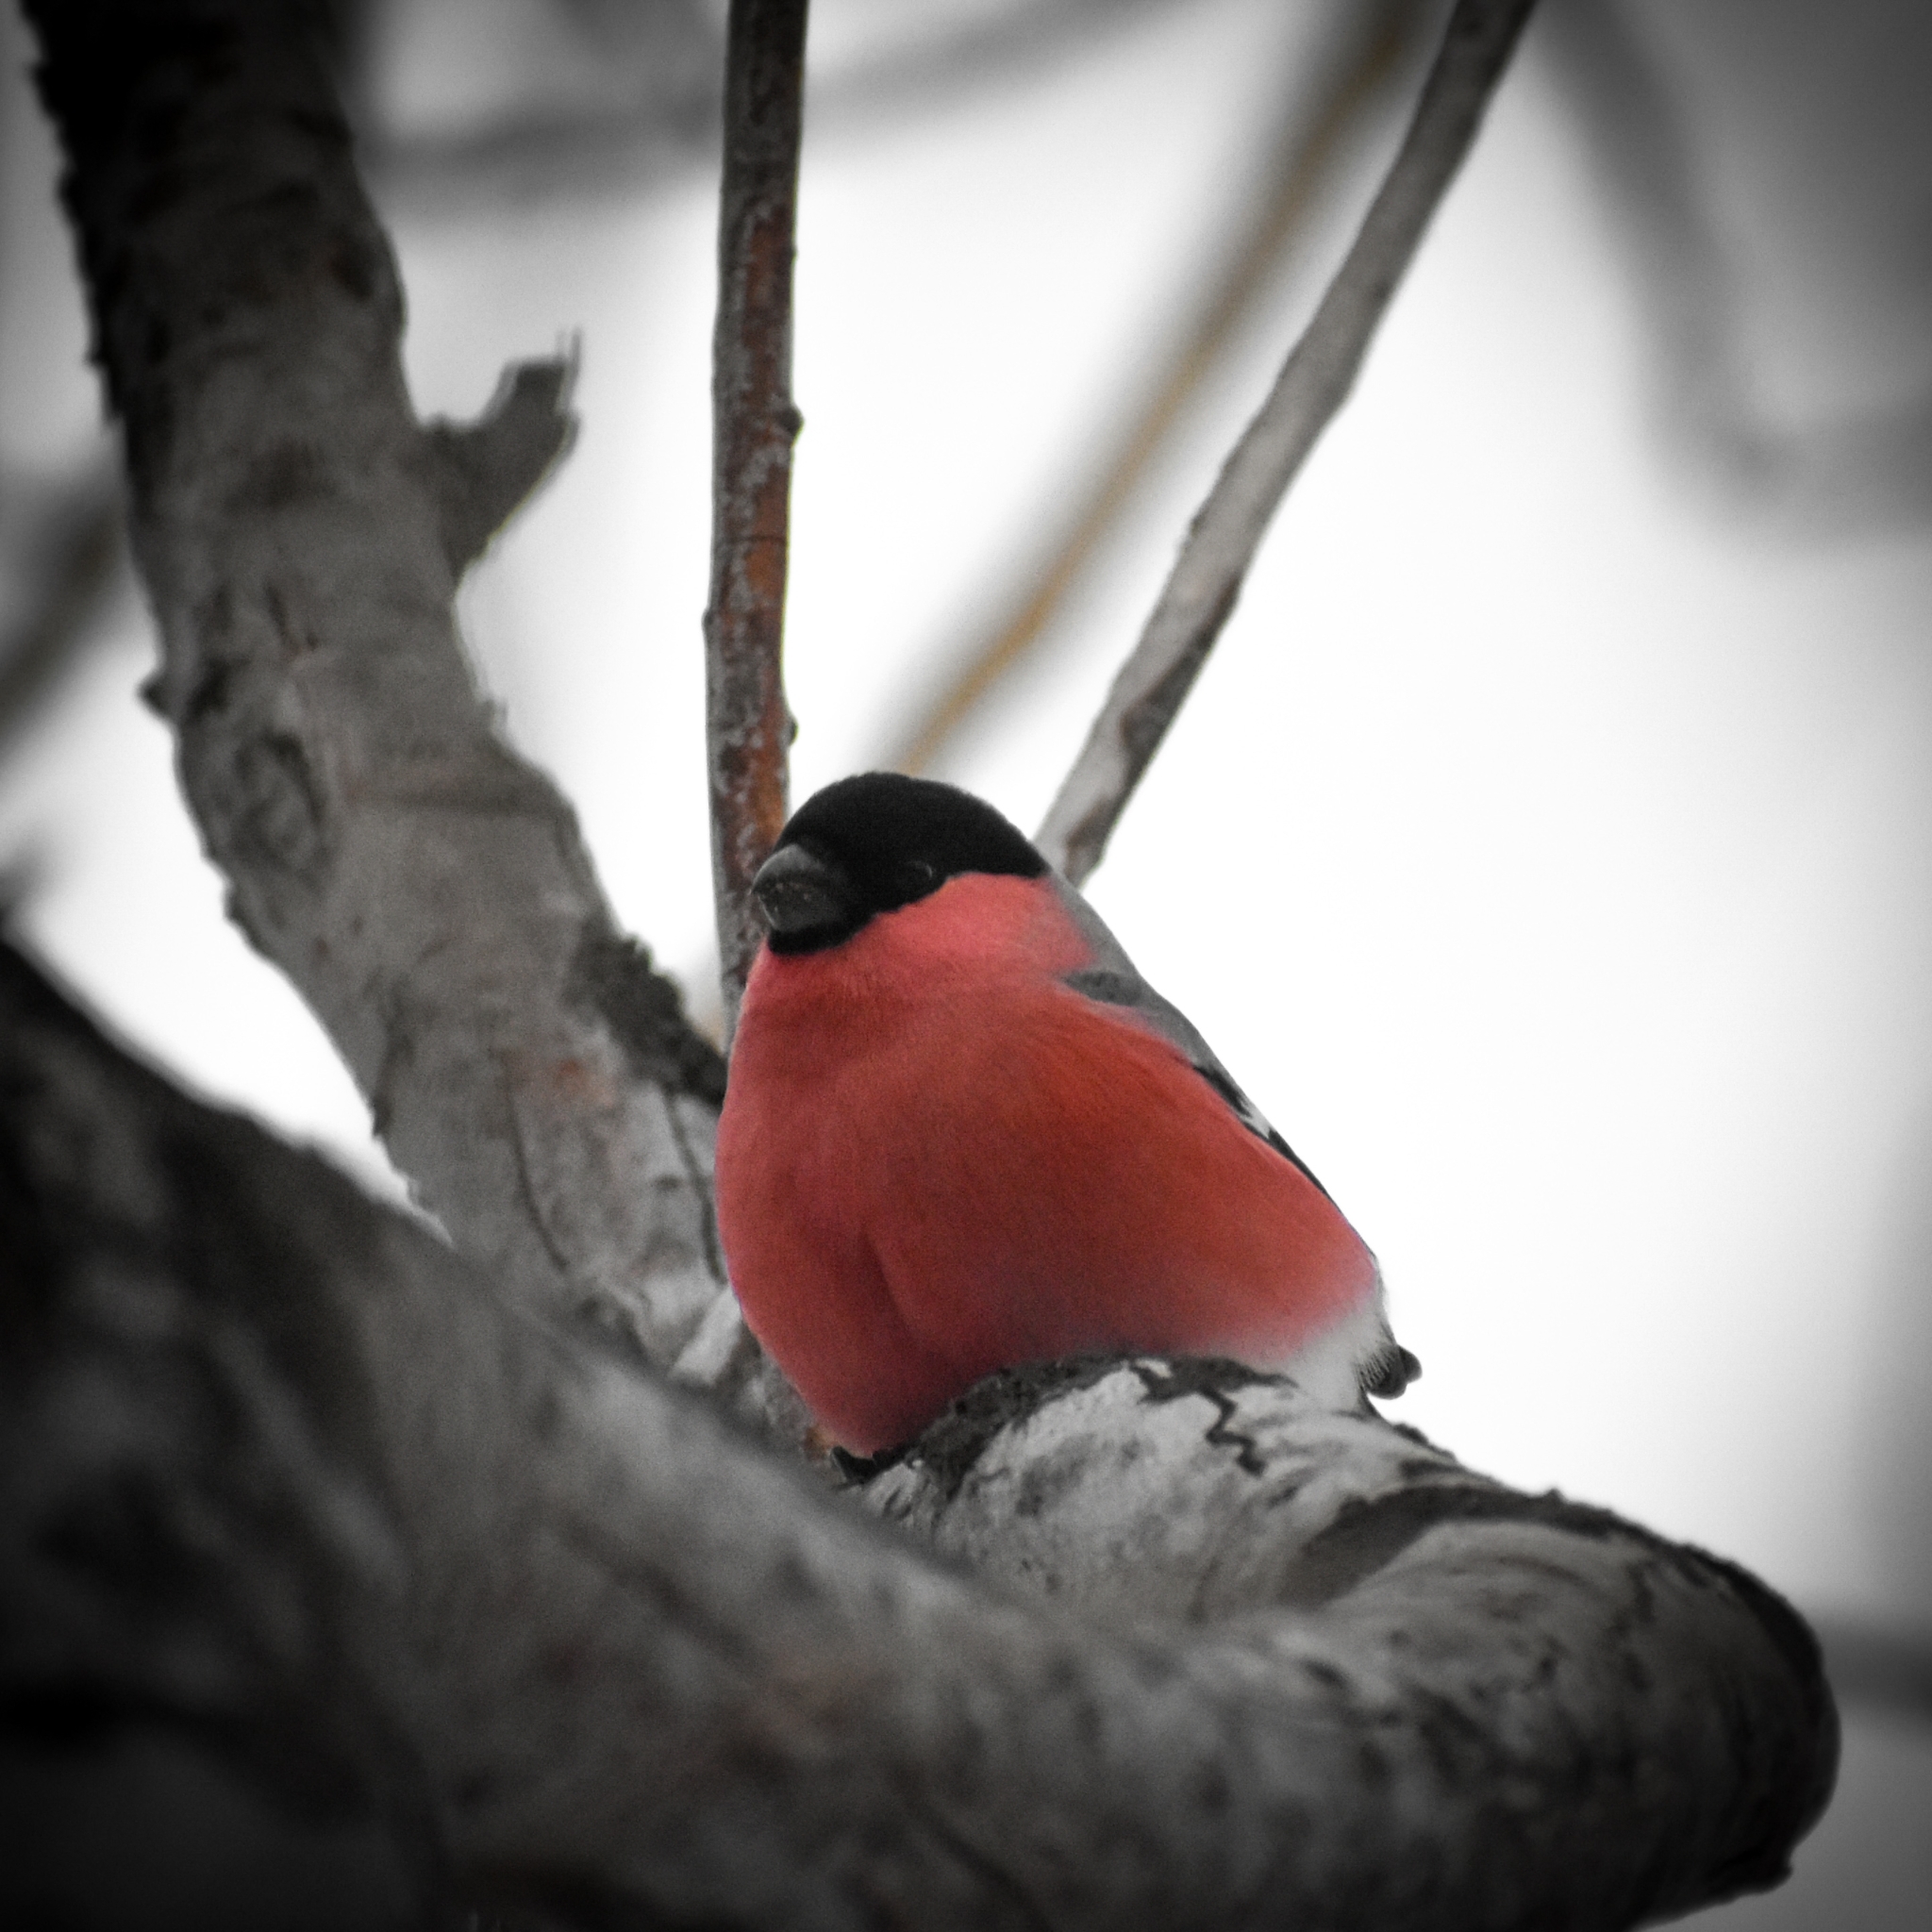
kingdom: Animalia
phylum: Chordata
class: Aves
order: Passeriformes
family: Fringillidae
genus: Pyrrhula
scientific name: Pyrrhula pyrrhula
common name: Eurasian bullfinch
